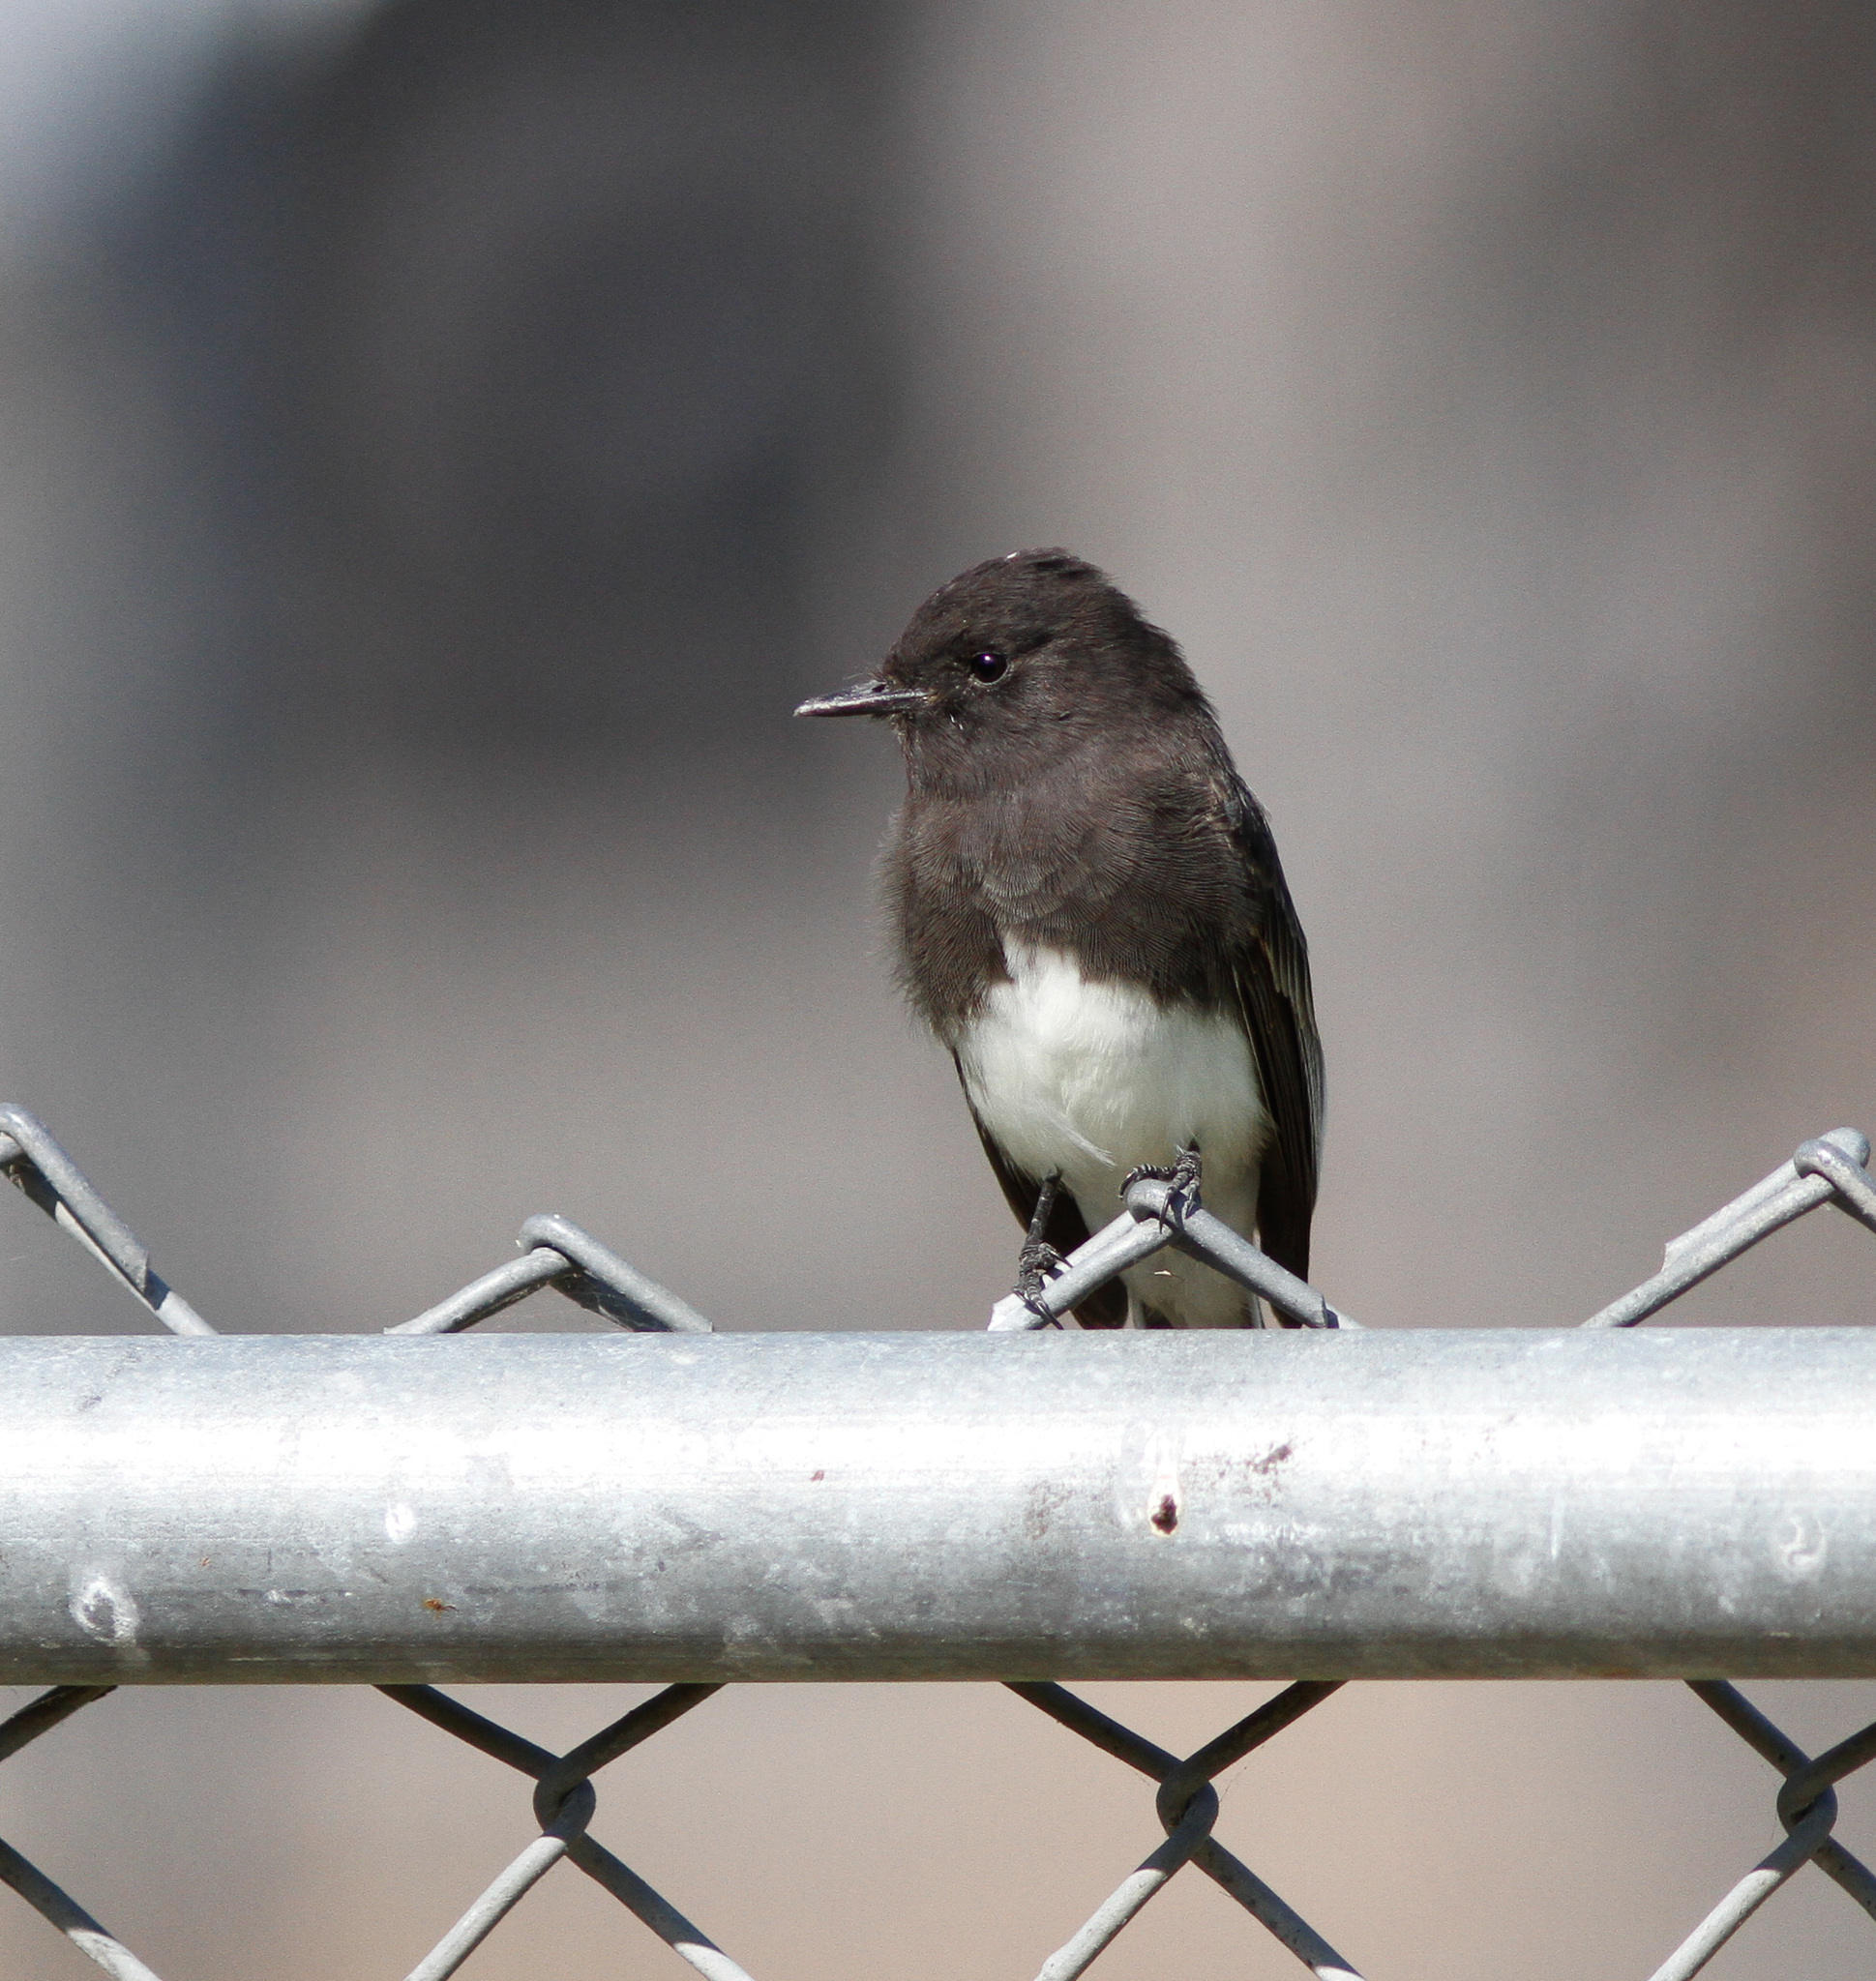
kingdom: Animalia
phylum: Chordata
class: Aves
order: Passeriformes
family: Tyrannidae
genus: Sayornis
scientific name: Sayornis nigricans
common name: Black phoebe
